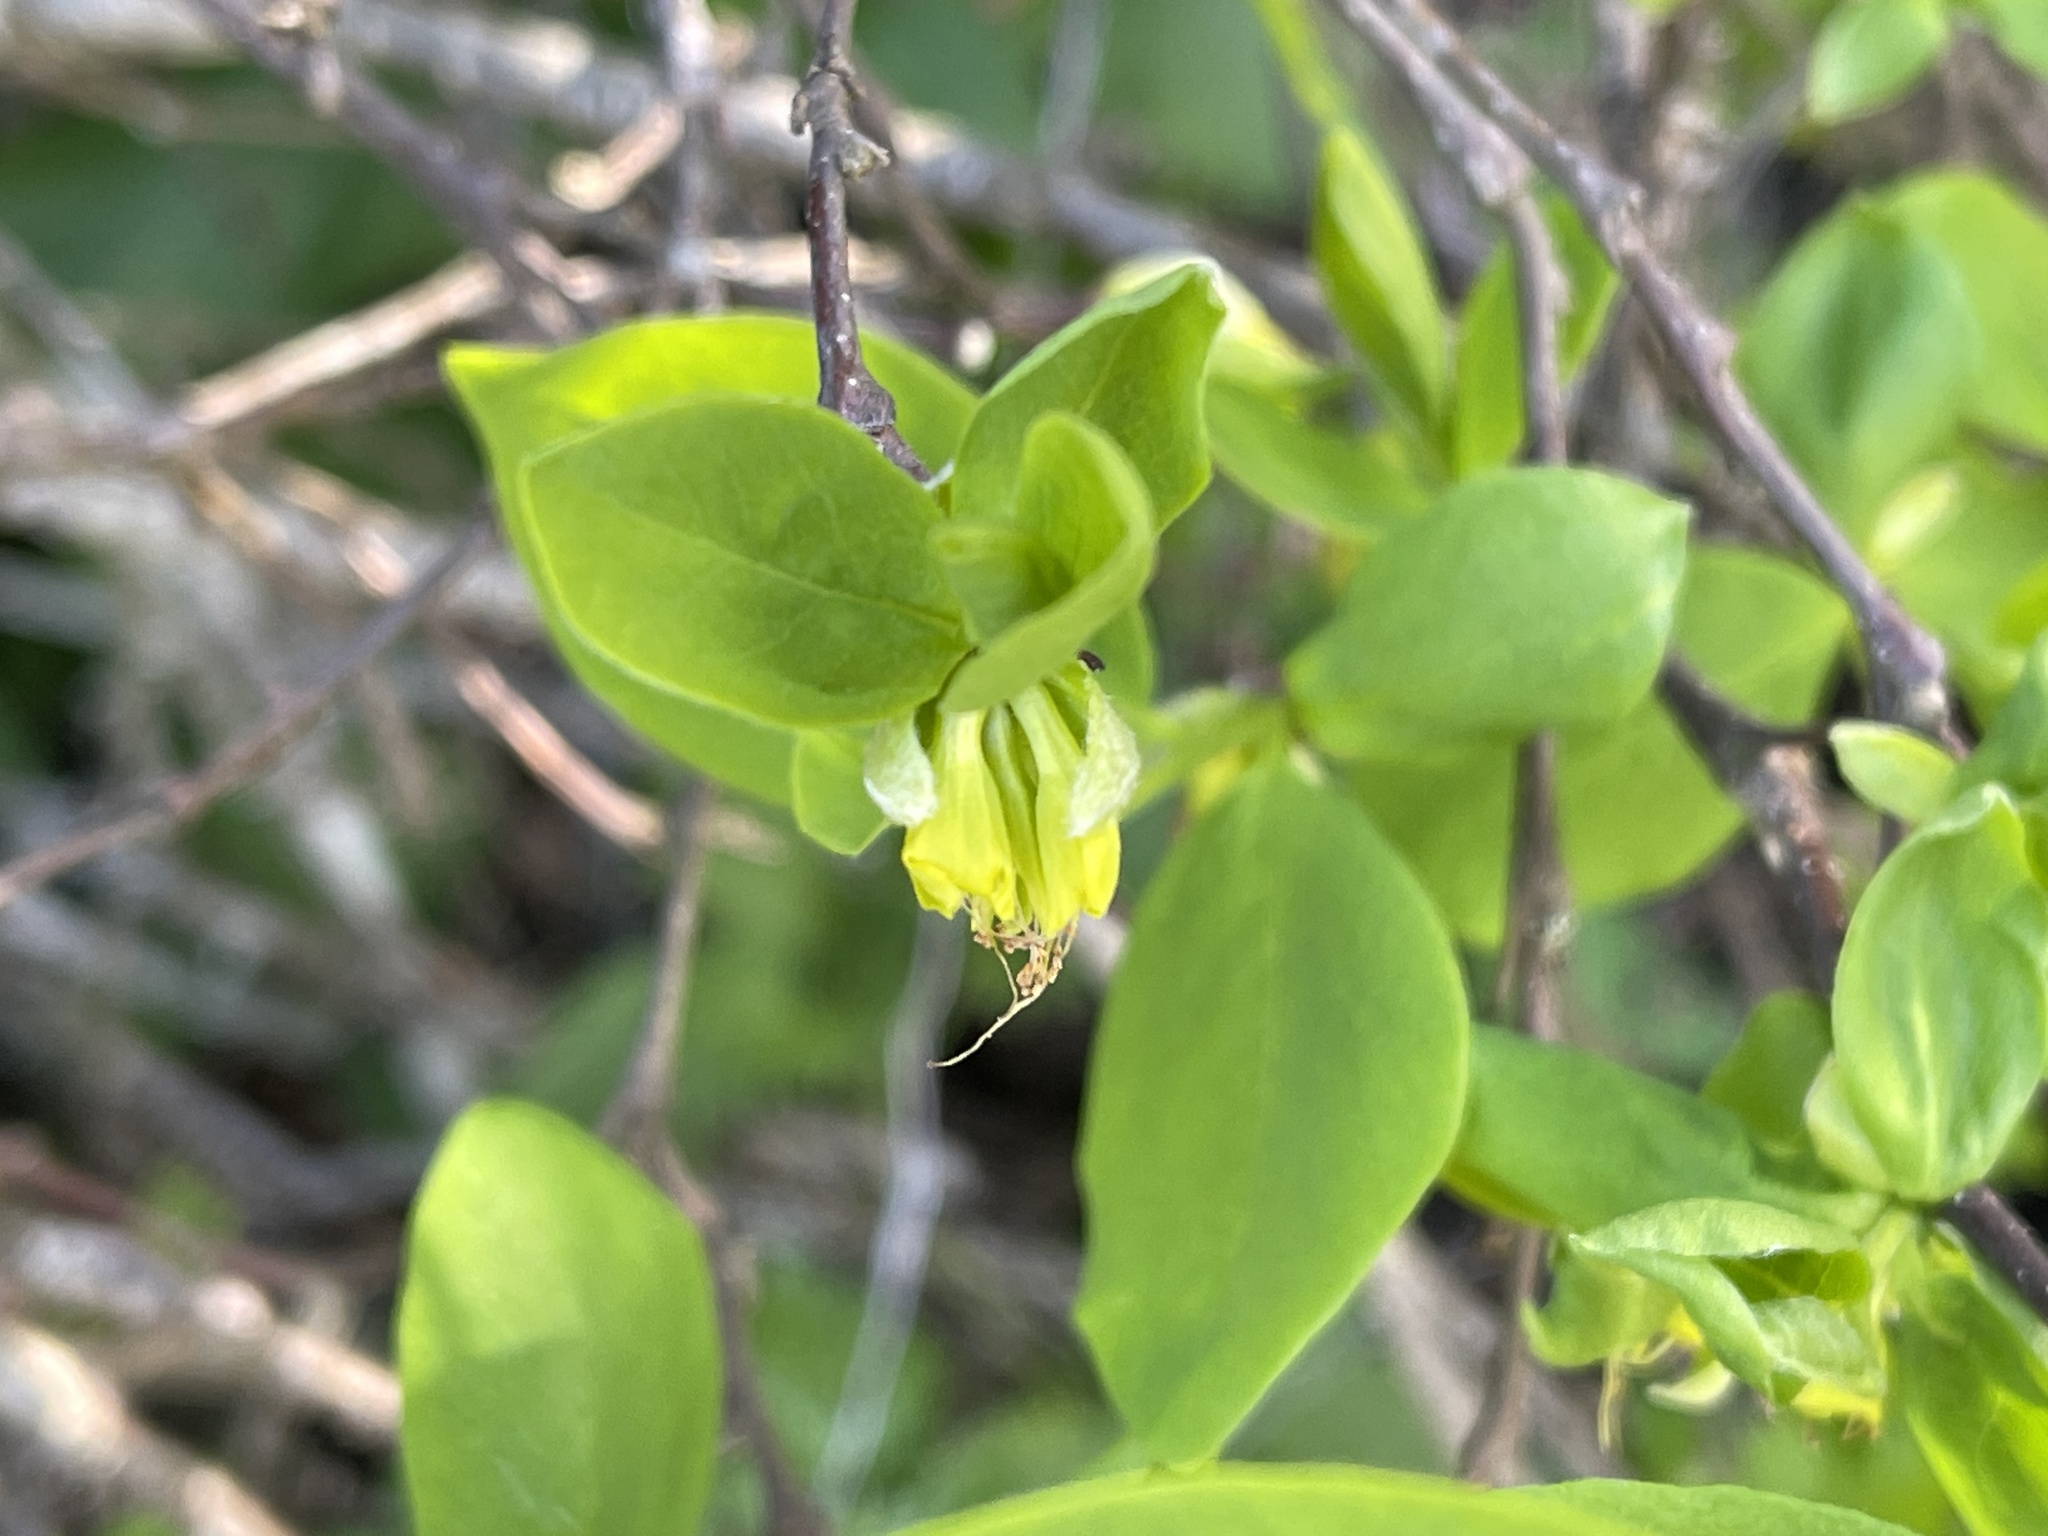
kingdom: Plantae
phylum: Tracheophyta
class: Magnoliopsida
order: Malvales
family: Thymelaeaceae
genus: Dirca
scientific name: Dirca occidentalis
